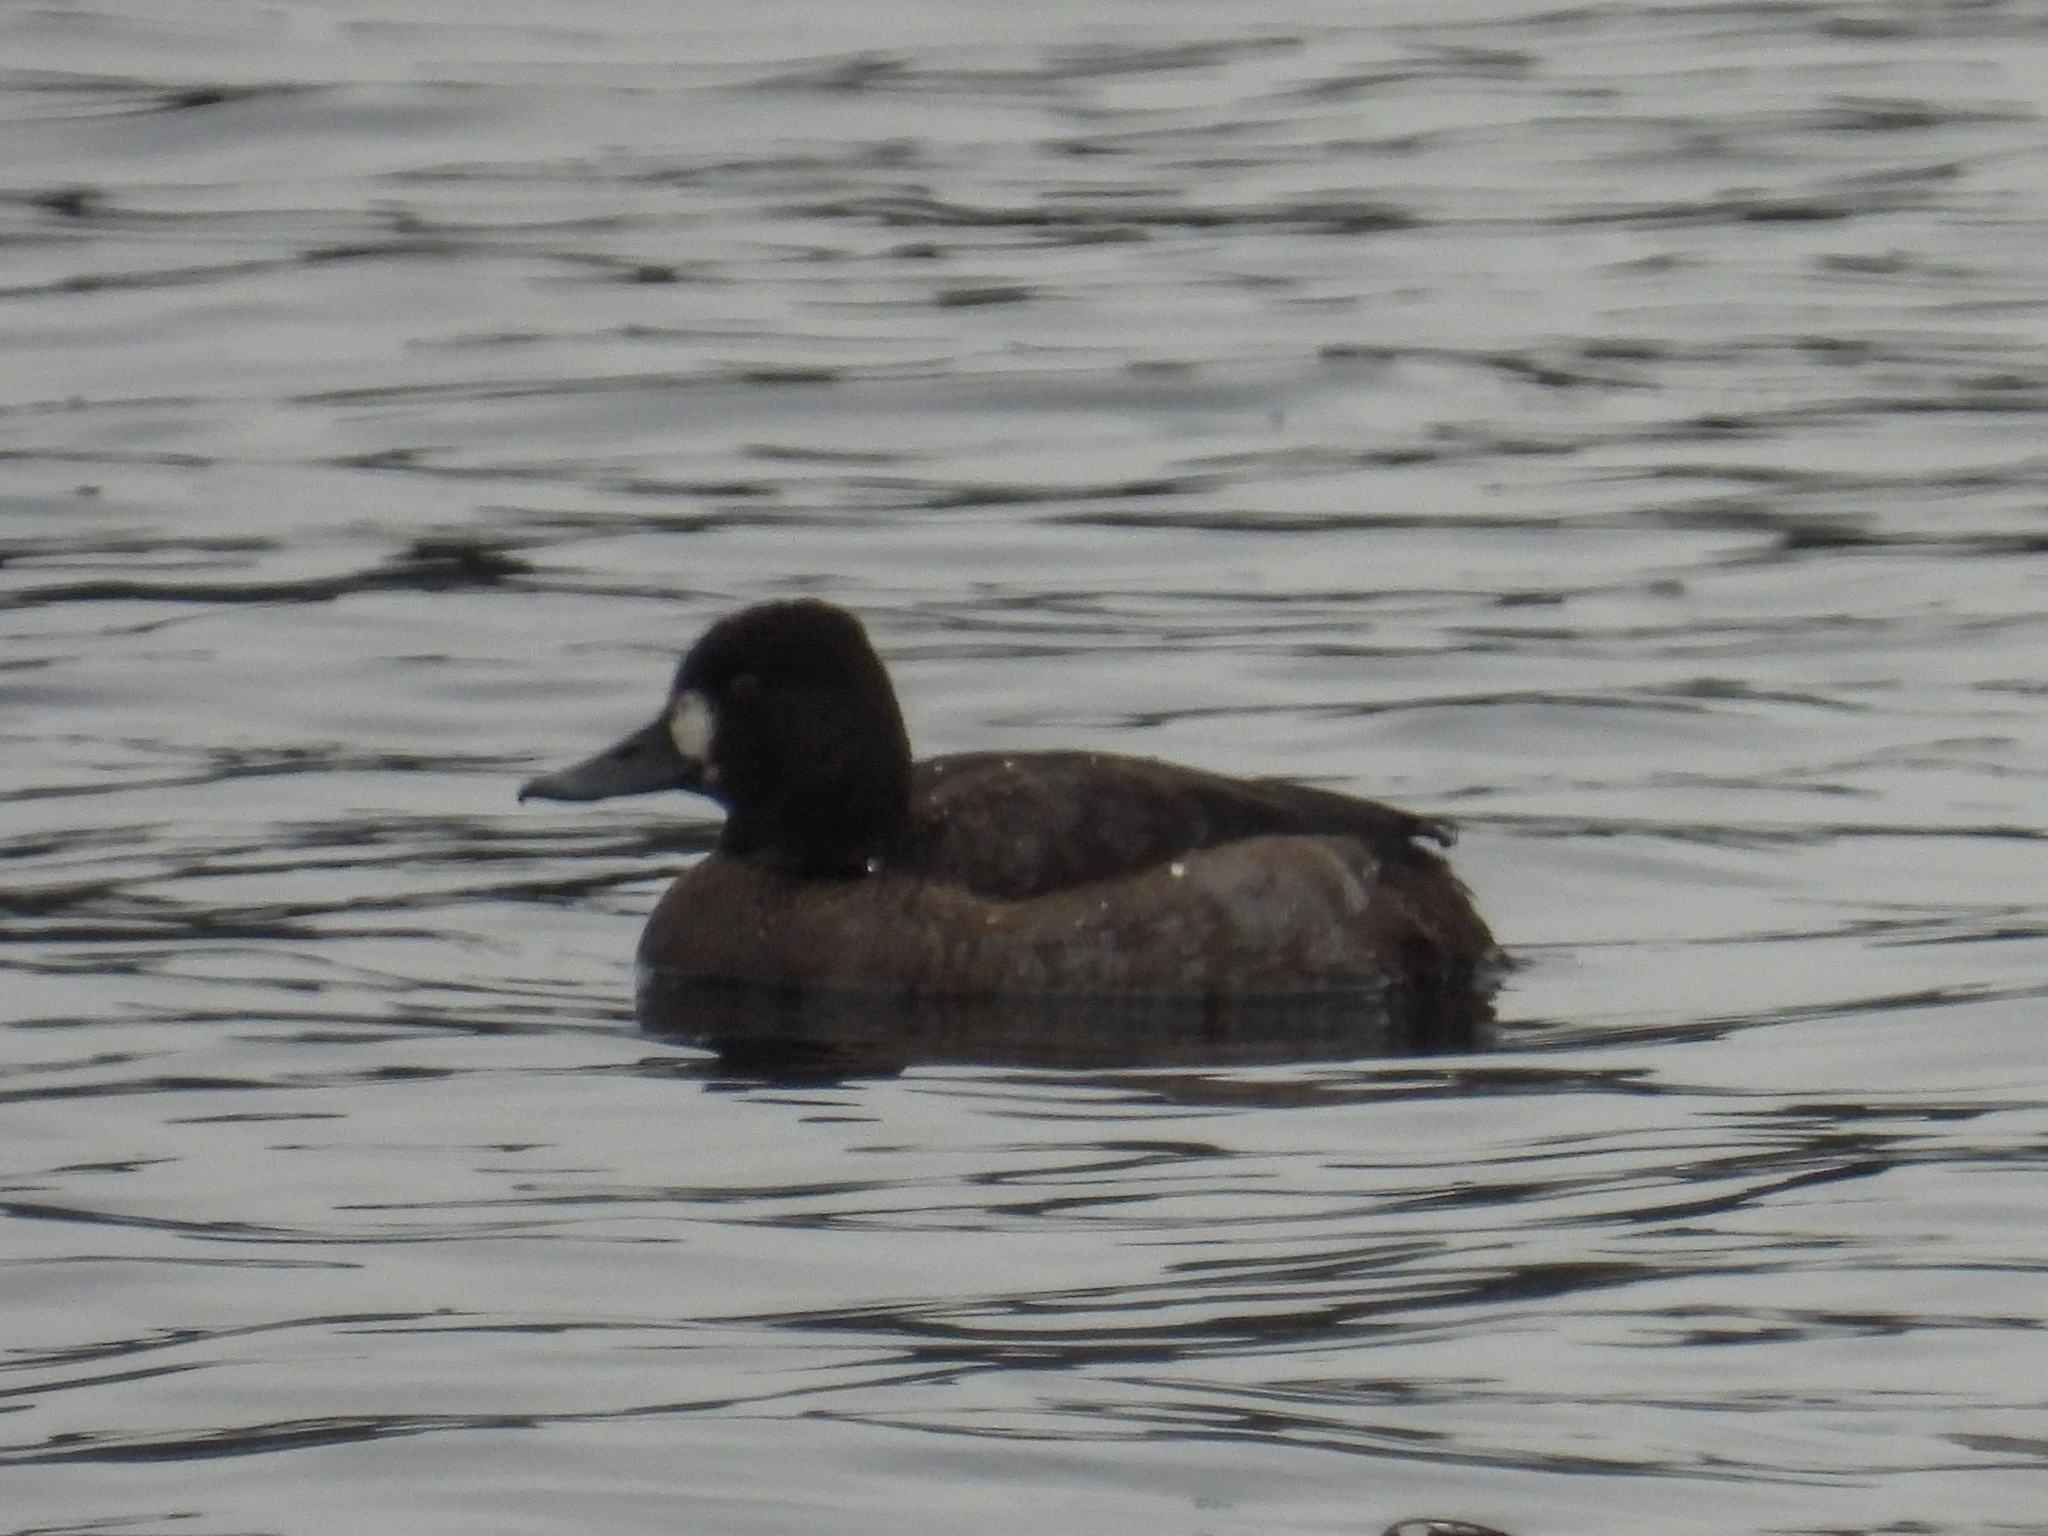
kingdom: Animalia
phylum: Chordata
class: Aves
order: Anseriformes
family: Anatidae
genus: Aythya
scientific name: Aythya affinis
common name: Lesser scaup
